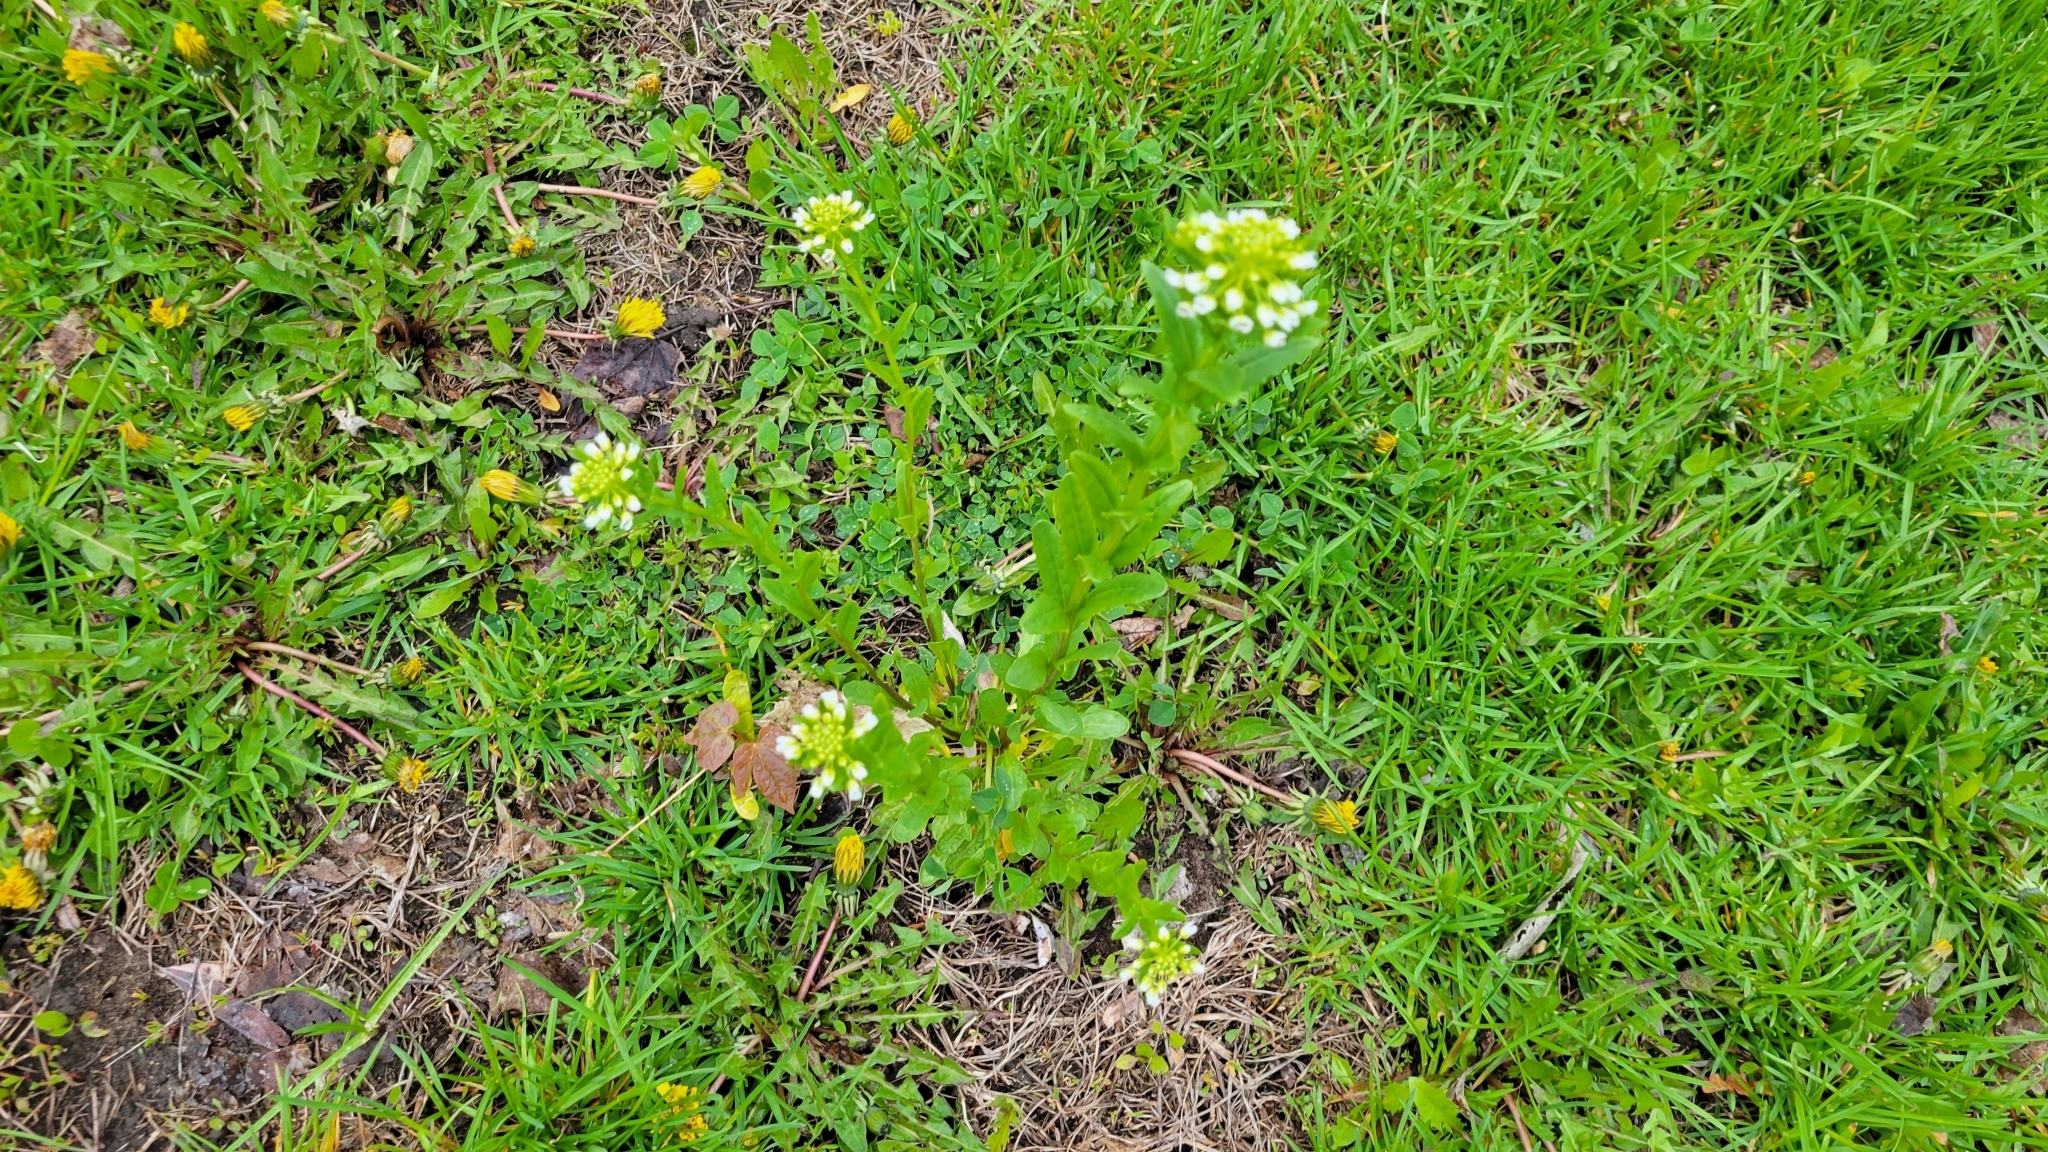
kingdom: Plantae
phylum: Tracheophyta
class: Magnoliopsida
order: Brassicales
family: Brassicaceae
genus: Thlaspi
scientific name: Thlaspi arvense
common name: Field pennycress
